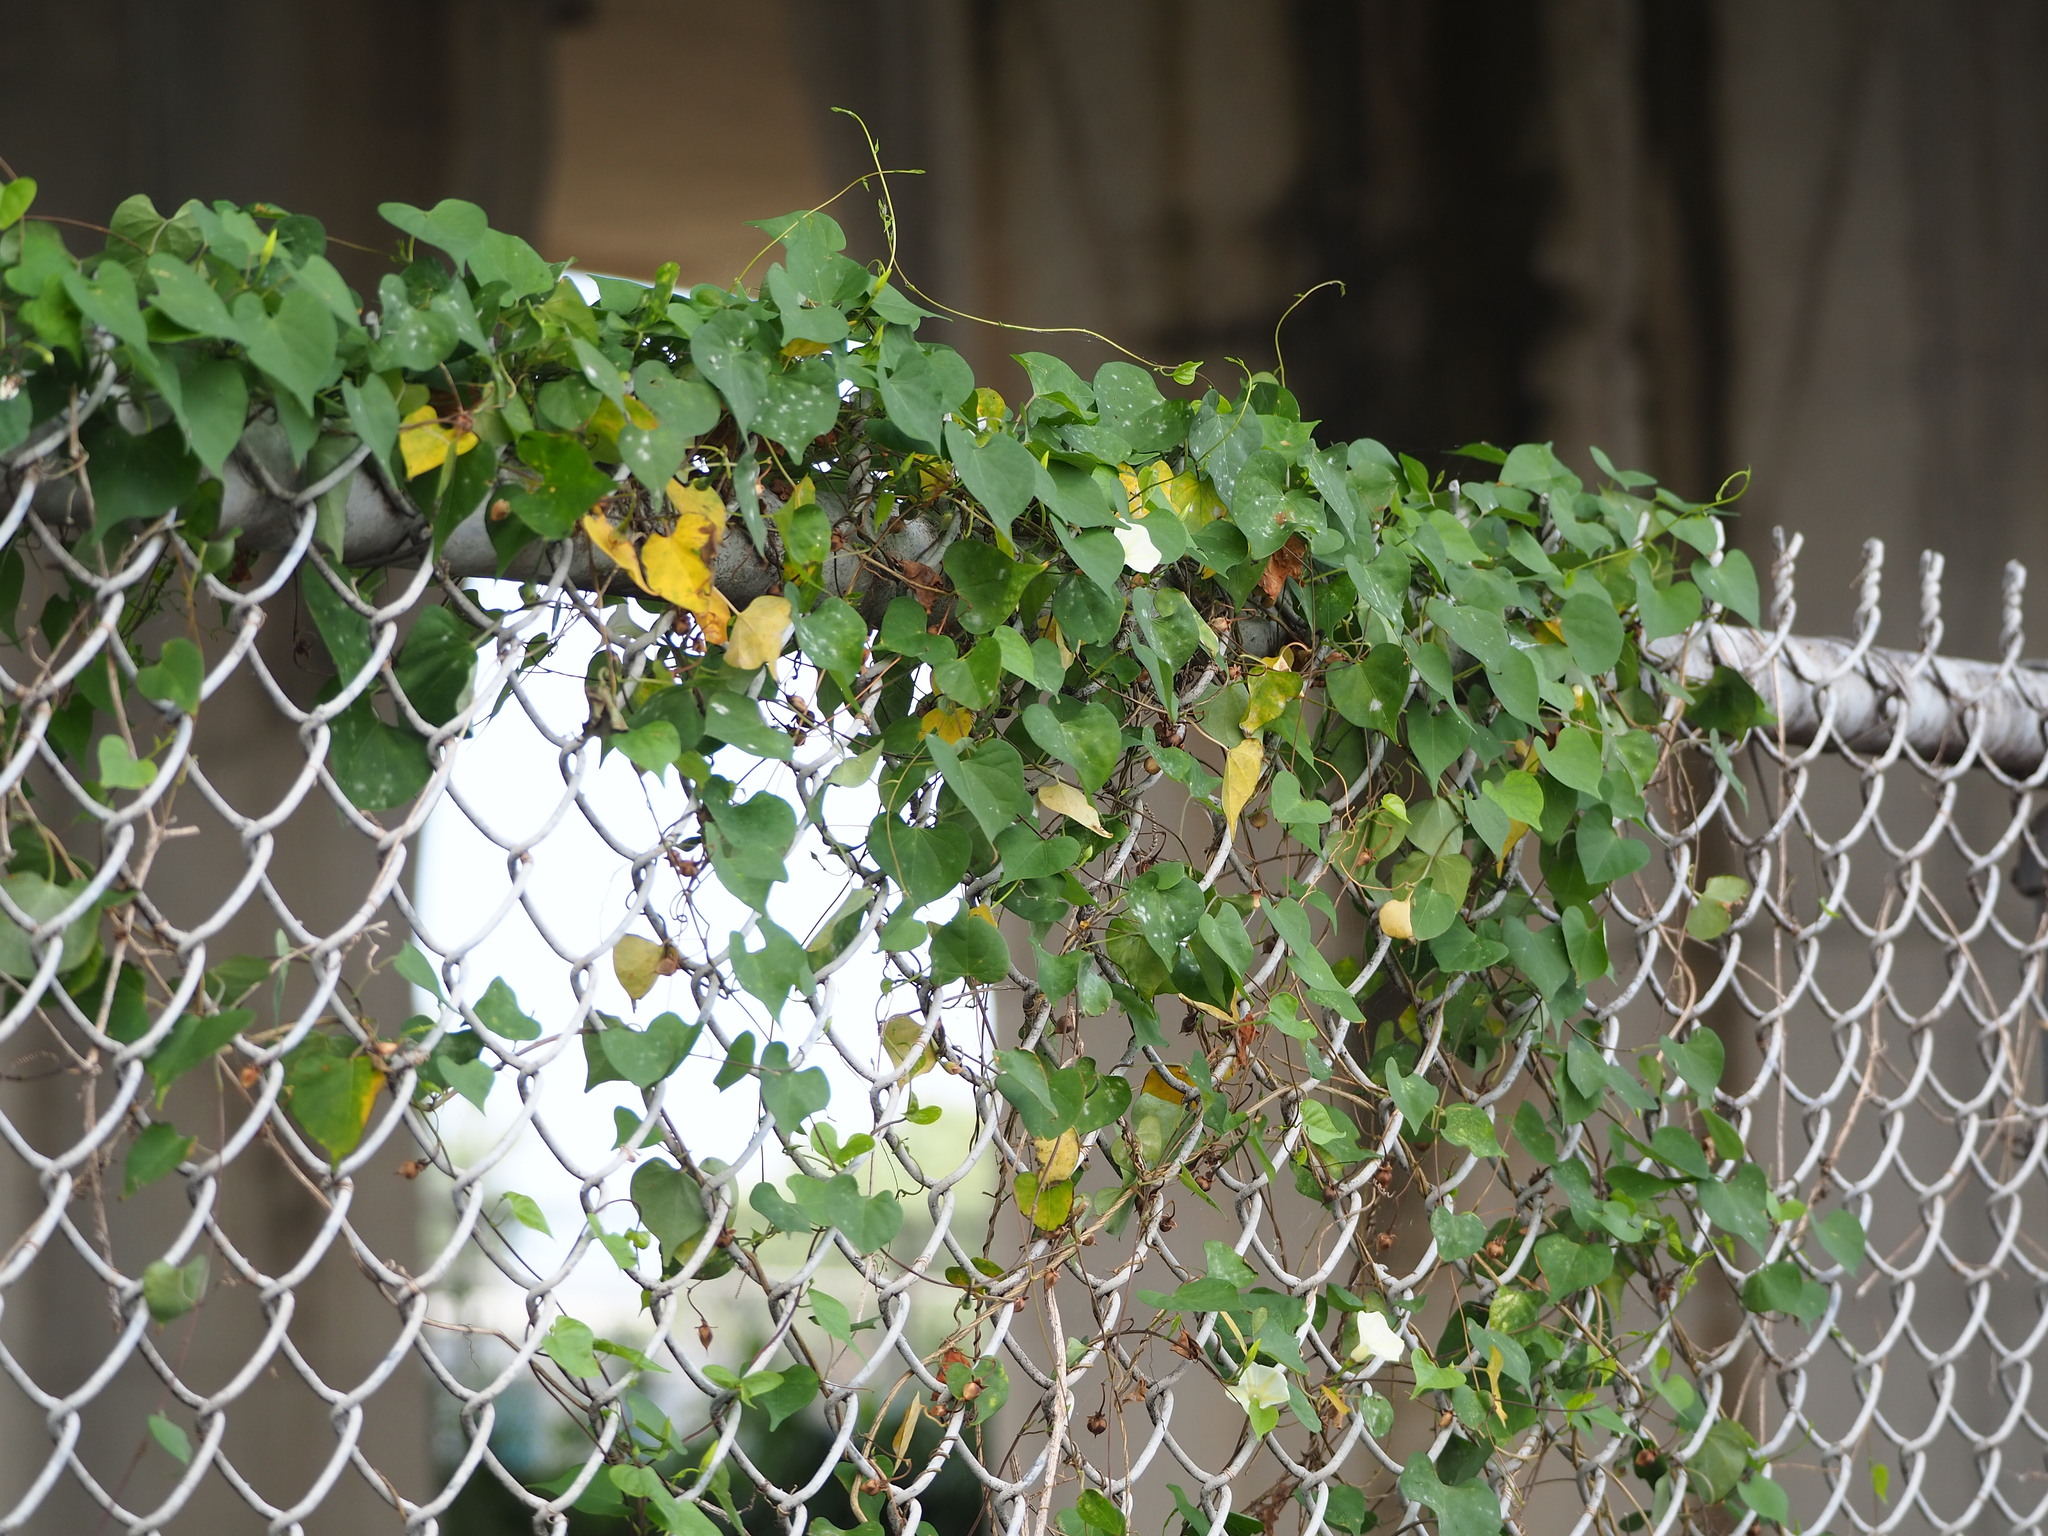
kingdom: Plantae
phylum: Tracheophyta
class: Magnoliopsida
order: Solanales
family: Convolvulaceae
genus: Ipomoea
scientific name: Ipomoea obscura
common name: Obscure morning-glory
